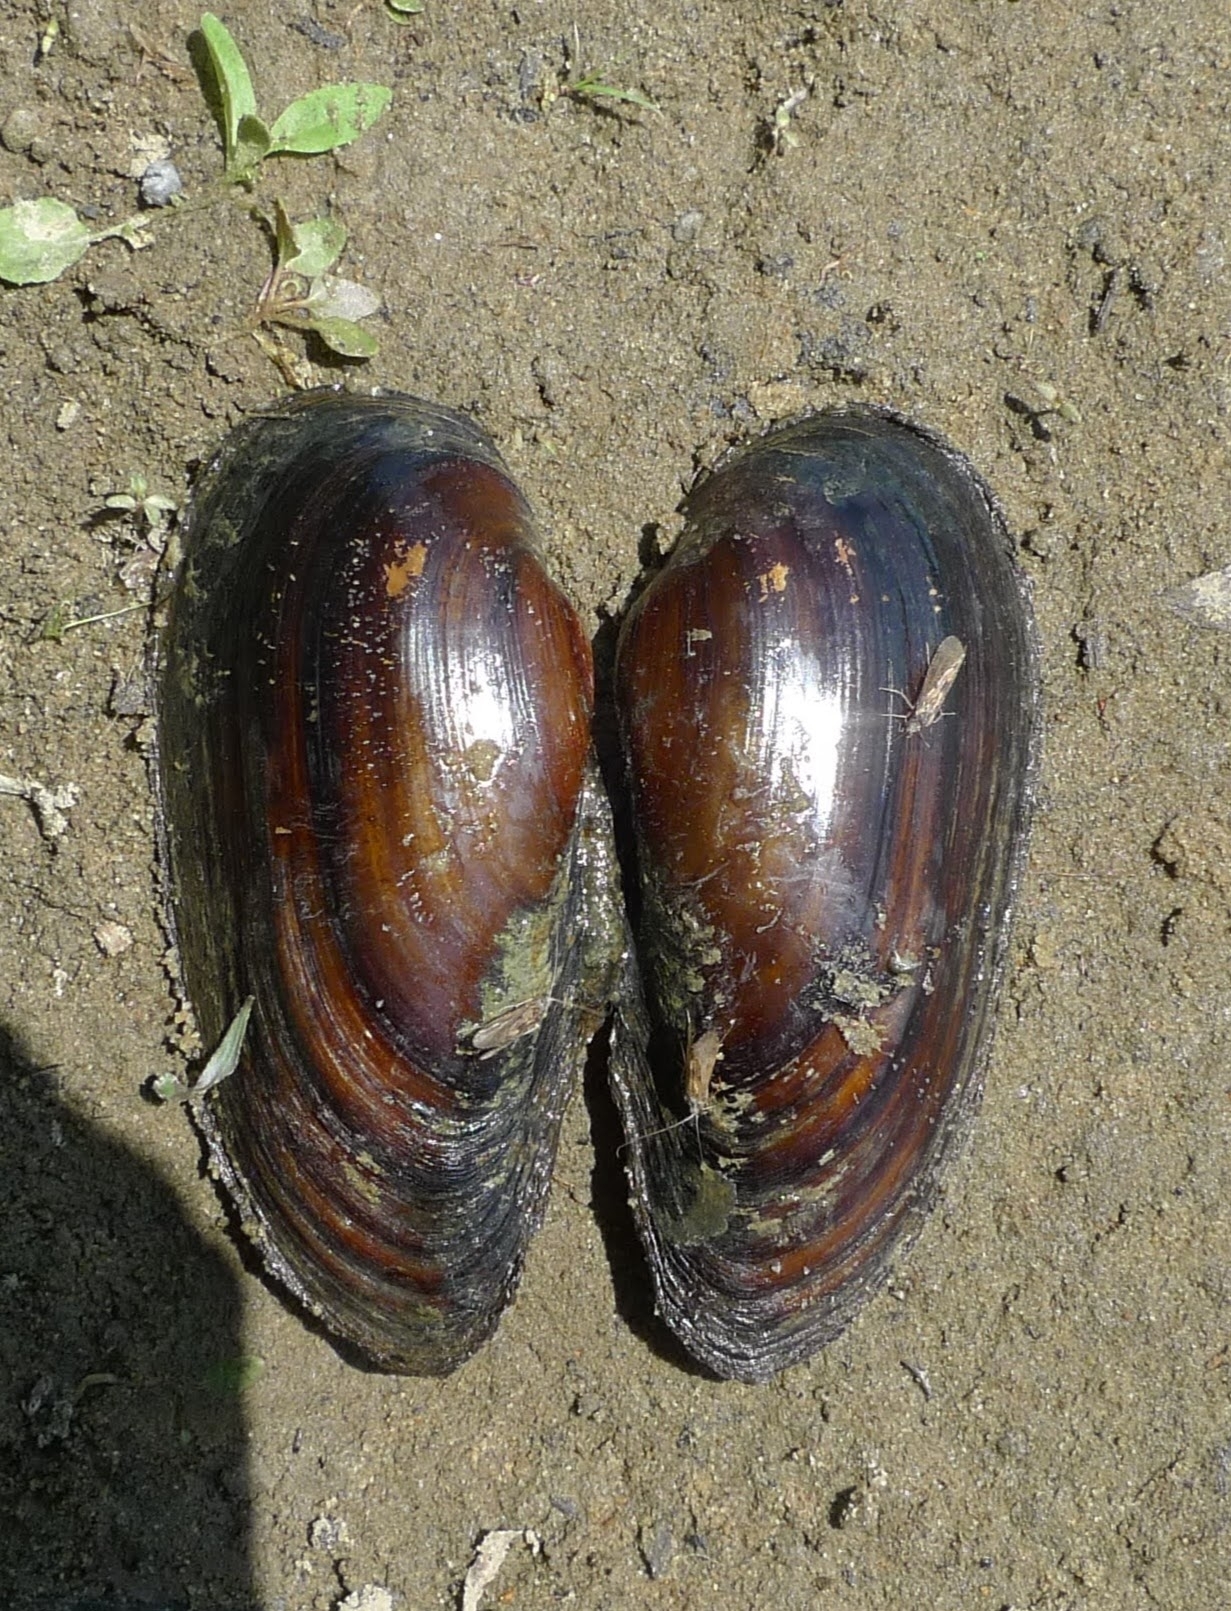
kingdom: Animalia
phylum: Mollusca
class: Bivalvia
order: Unionida
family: Unionidae
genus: Unio
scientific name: Unio pictorum
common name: Painter's mussel
